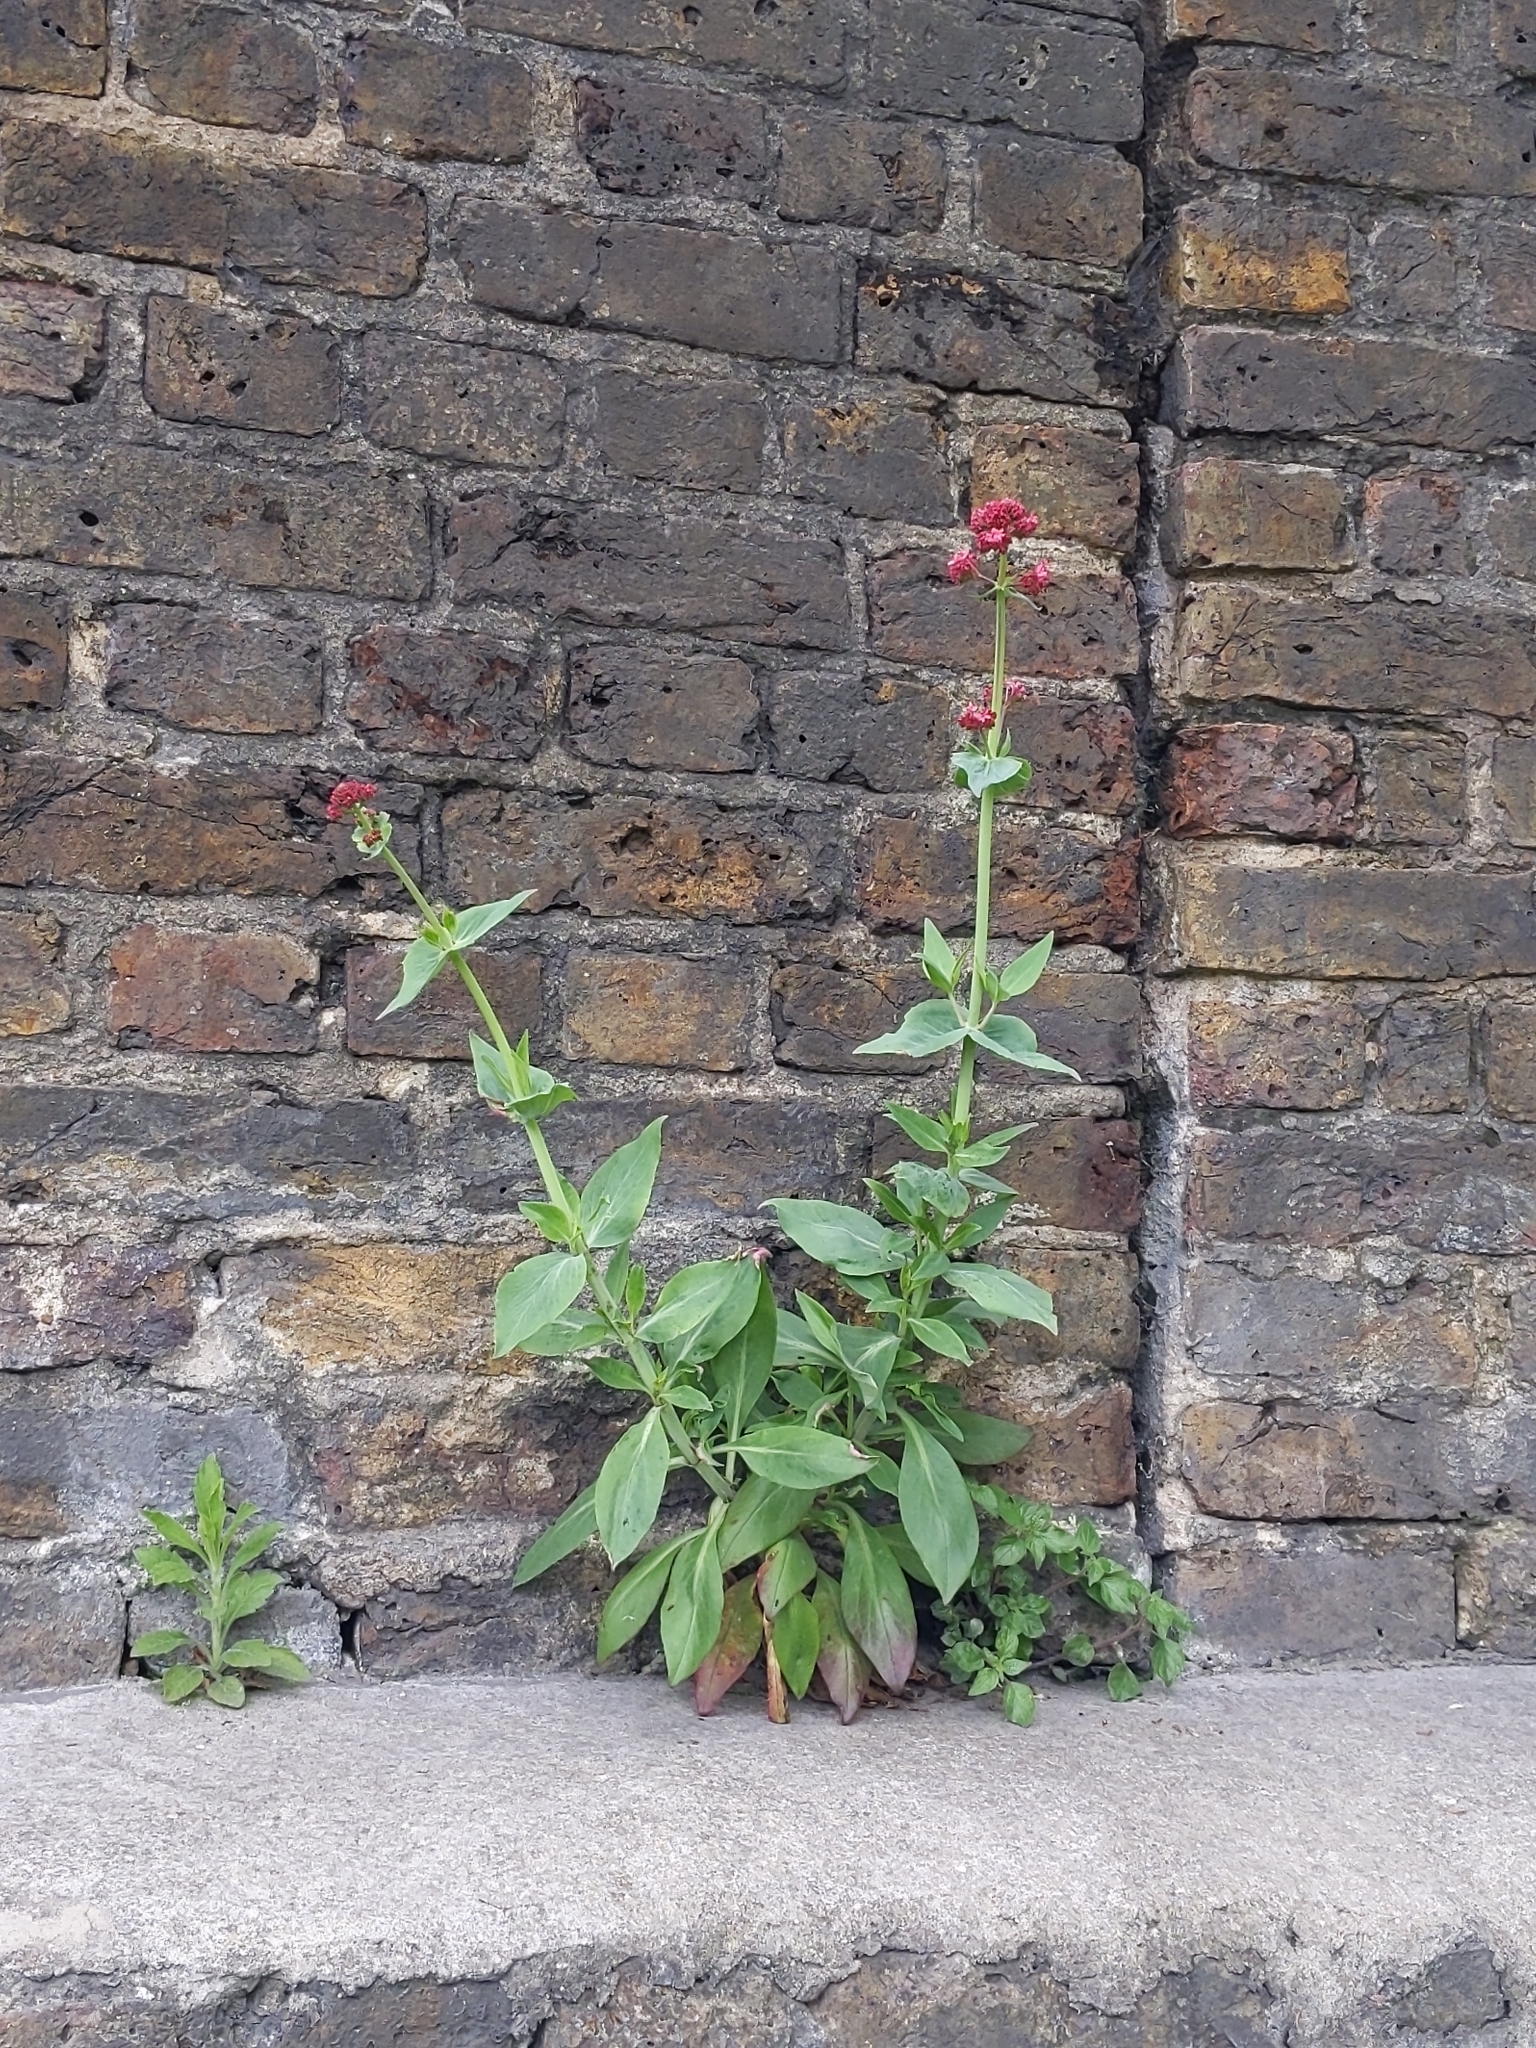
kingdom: Plantae
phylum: Tracheophyta
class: Magnoliopsida
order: Dipsacales
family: Caprifoliaceae
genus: Centranthus
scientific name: Centranthus ruber
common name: Red valerian
